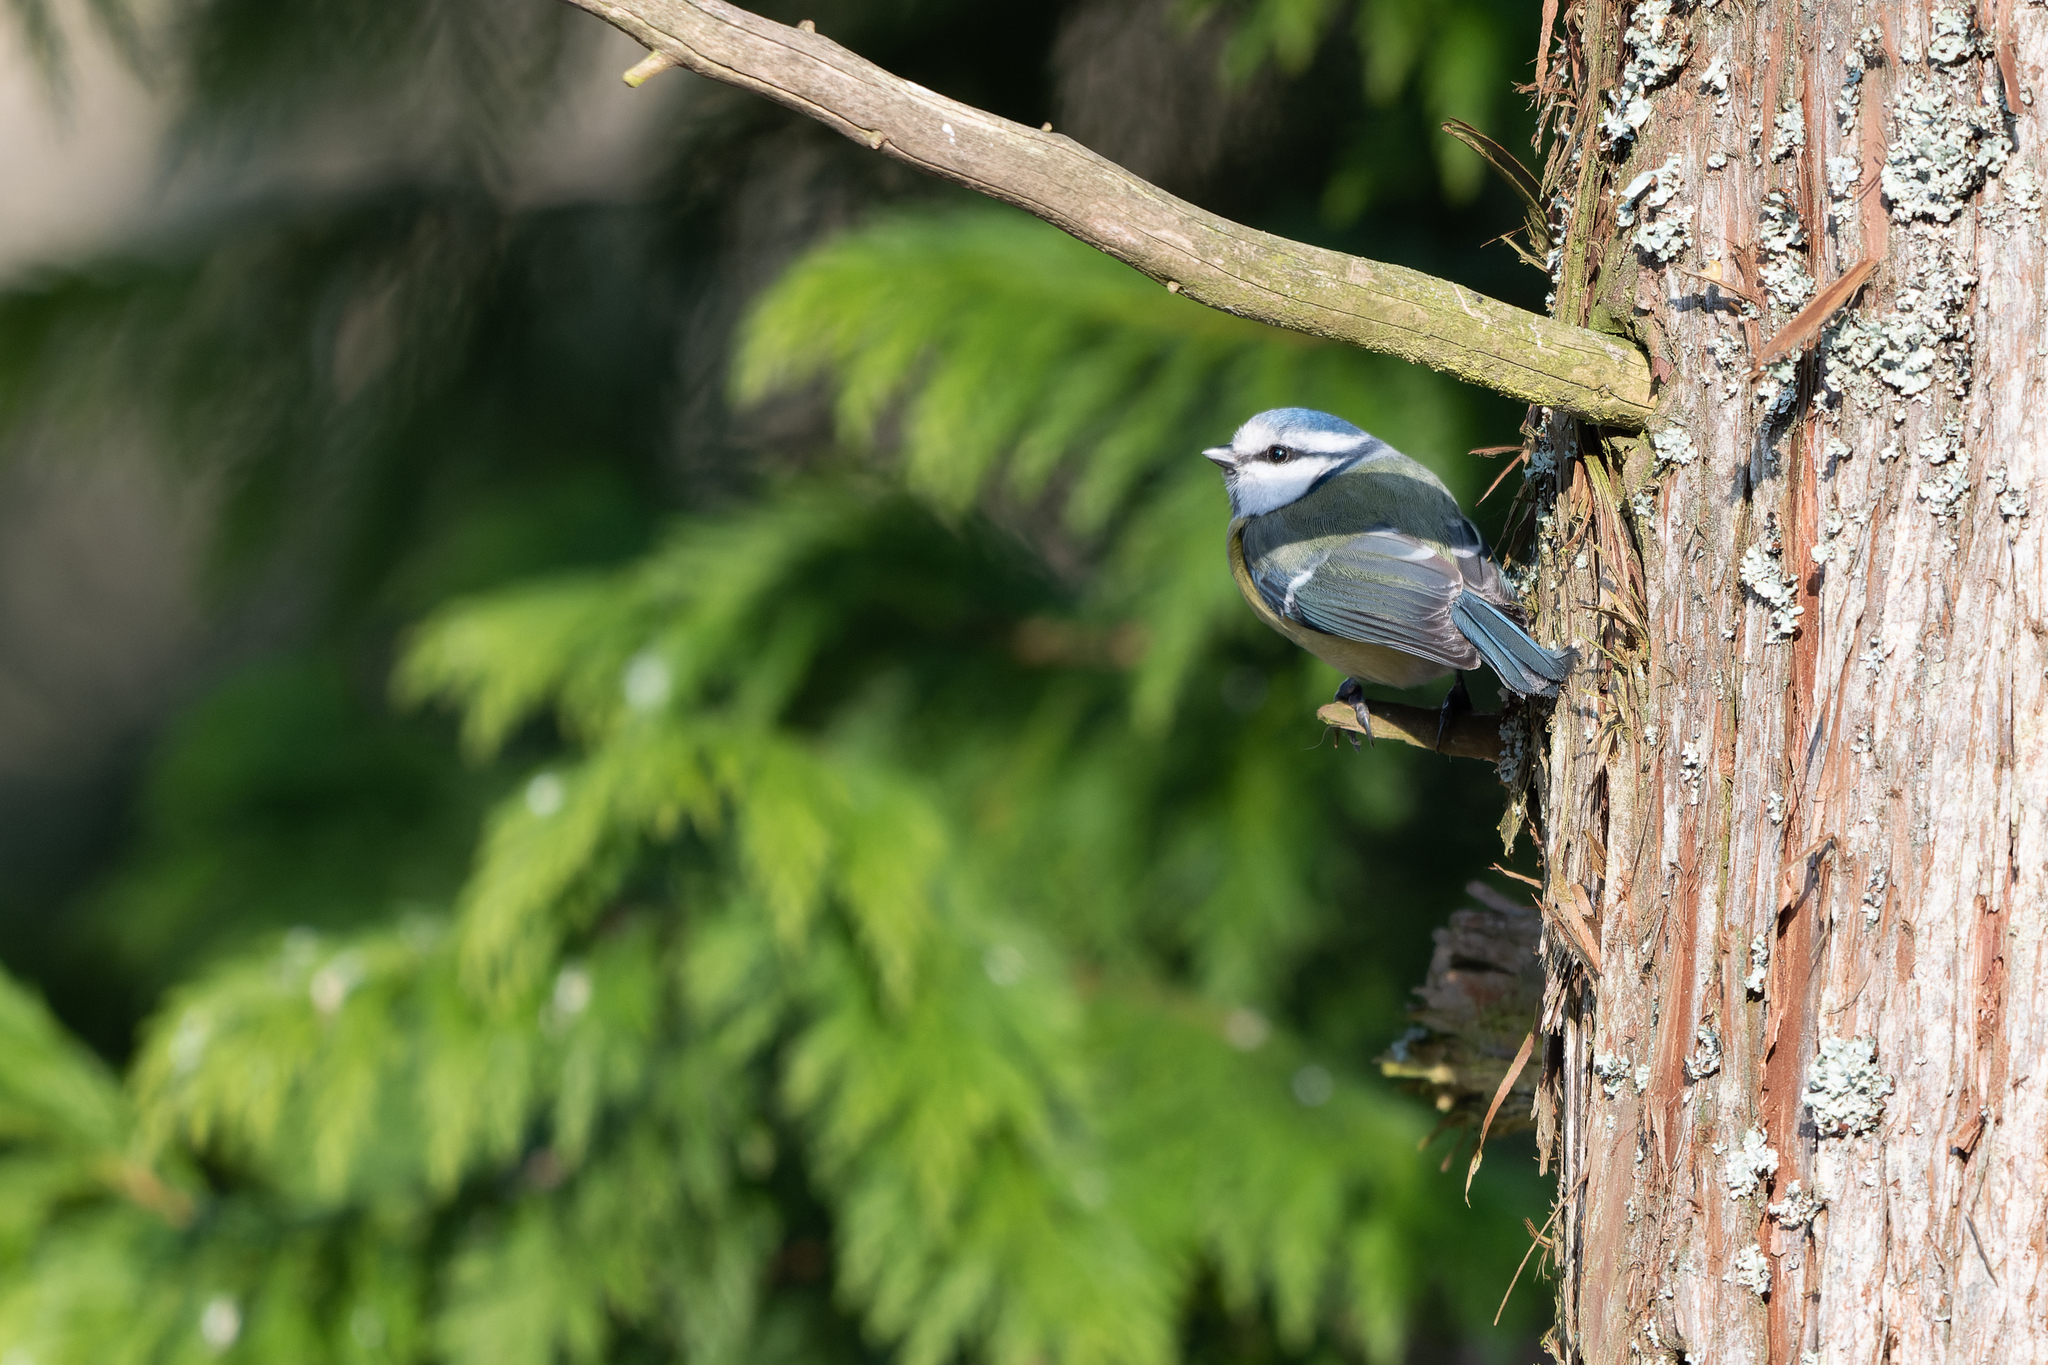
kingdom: Animalia
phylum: Chordata
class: Aves
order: Passeriformes
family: Paridae
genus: Cyanistes
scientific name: Cyanistes caeruleus
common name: Eurasian blue tit
